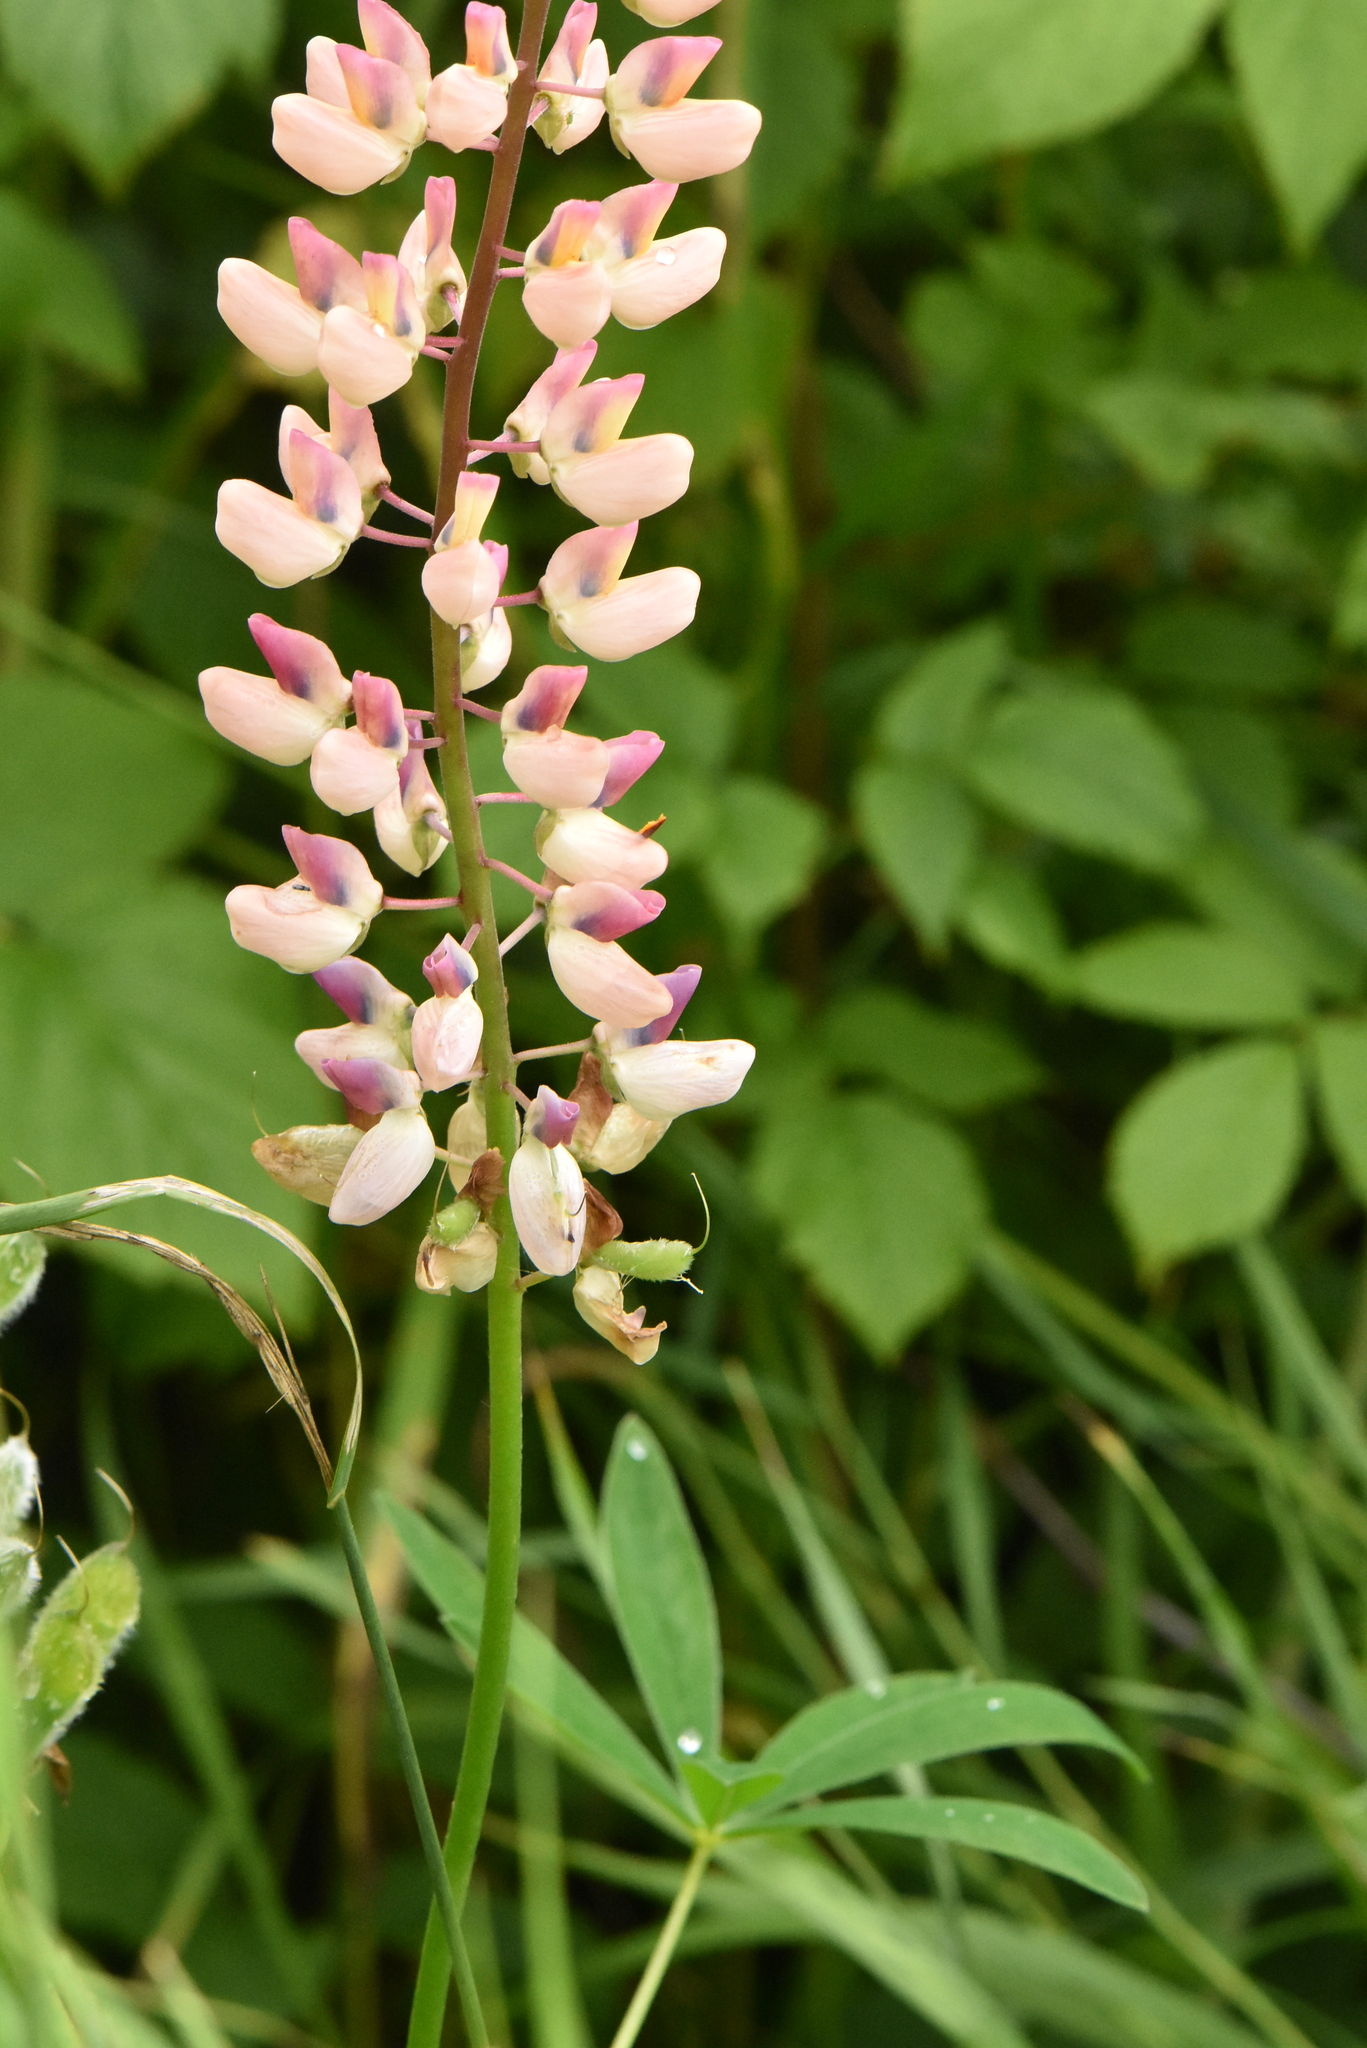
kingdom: Plantae
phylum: Tracheophyta
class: Magnoliopsida
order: Fabales
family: Fabaceae
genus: Lupinus
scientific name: Lupinus polyphyllus
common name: Garden lupin
